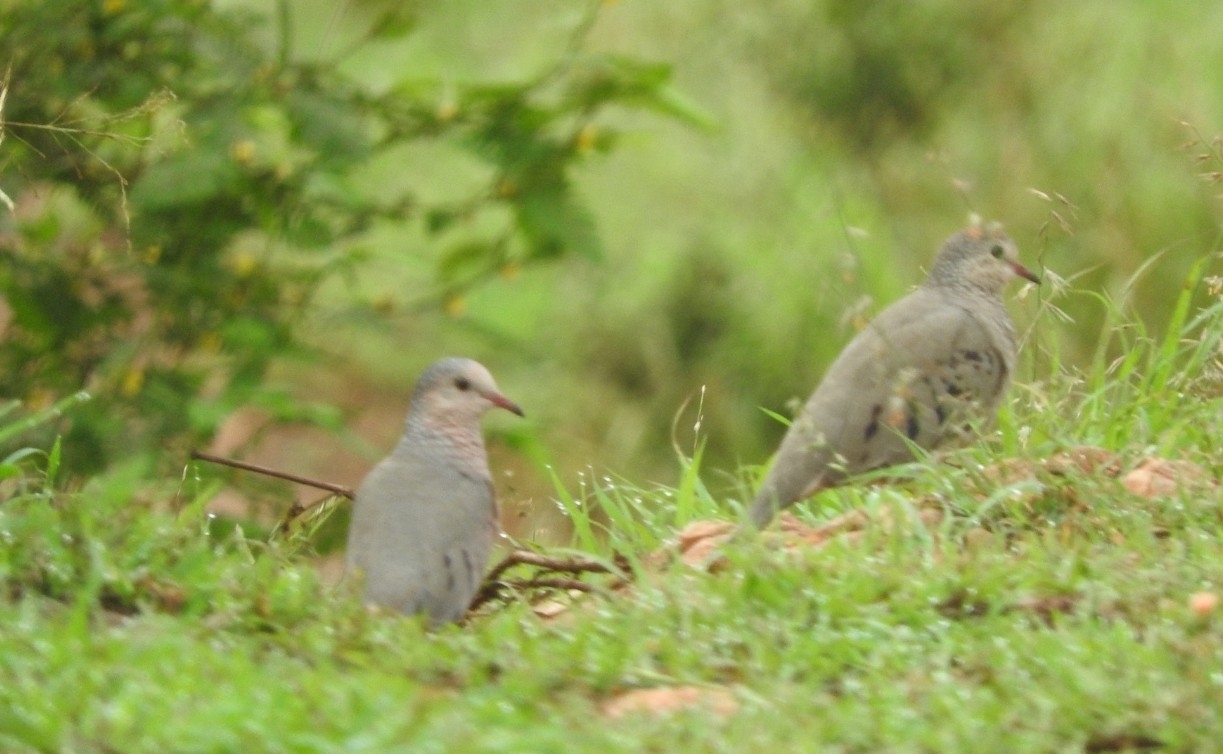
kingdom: Animalia
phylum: Chordata
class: Aves
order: Columbiformes
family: Columbidae
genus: Columbina
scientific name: Columbina passerina
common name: Common ground-dove
